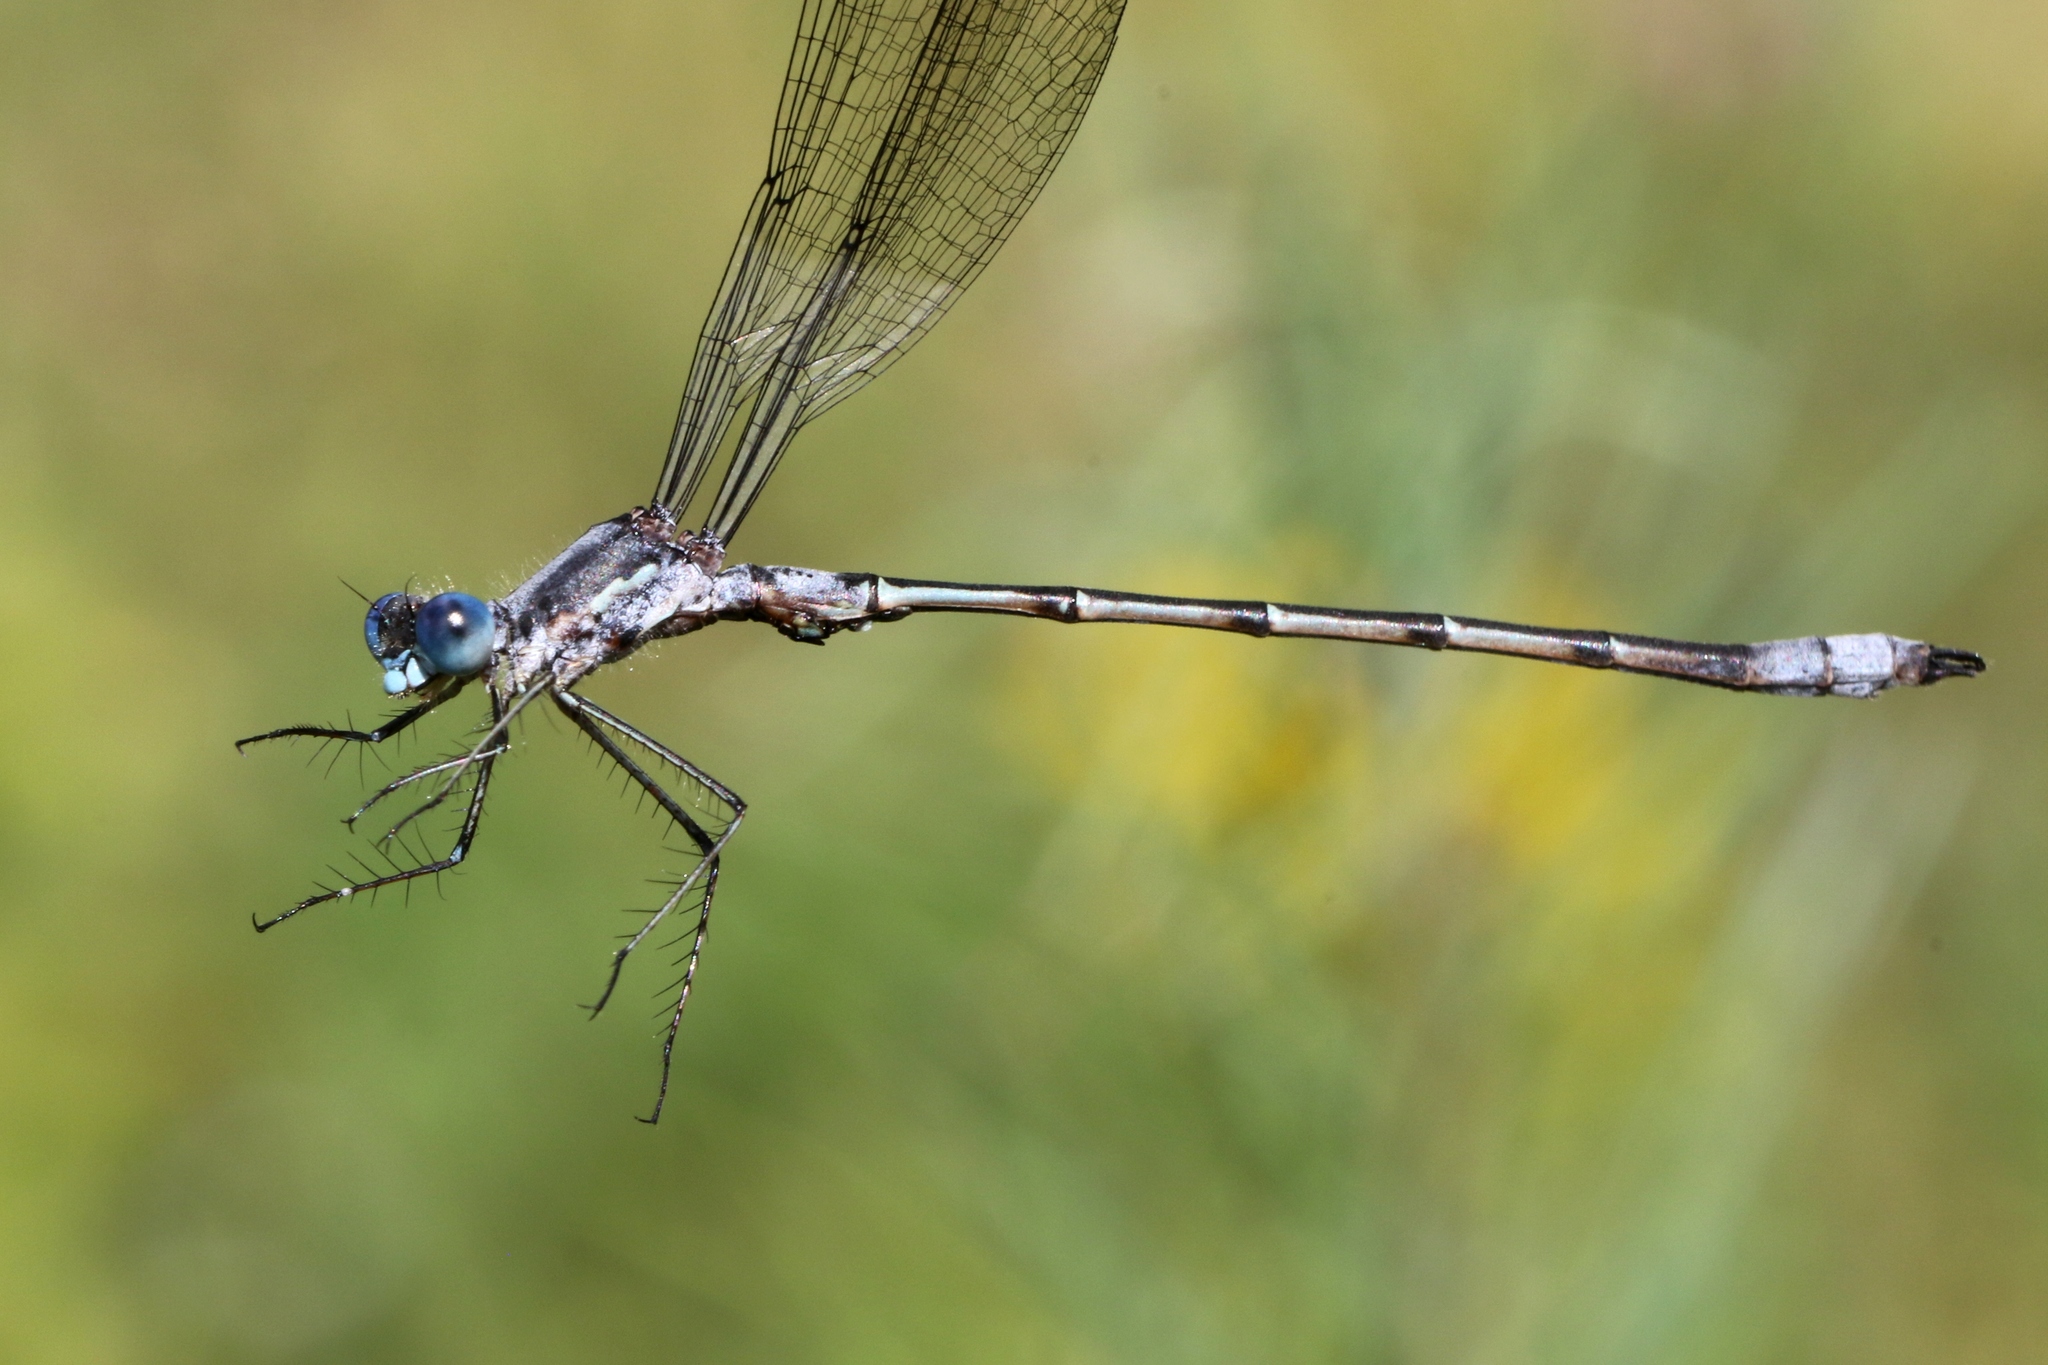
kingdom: Animalia
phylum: Arthropoda
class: Insecta
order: Odonata
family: Lestidae
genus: Lestes
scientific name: Lestes forcipatus
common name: Sweetflag spreadwing
